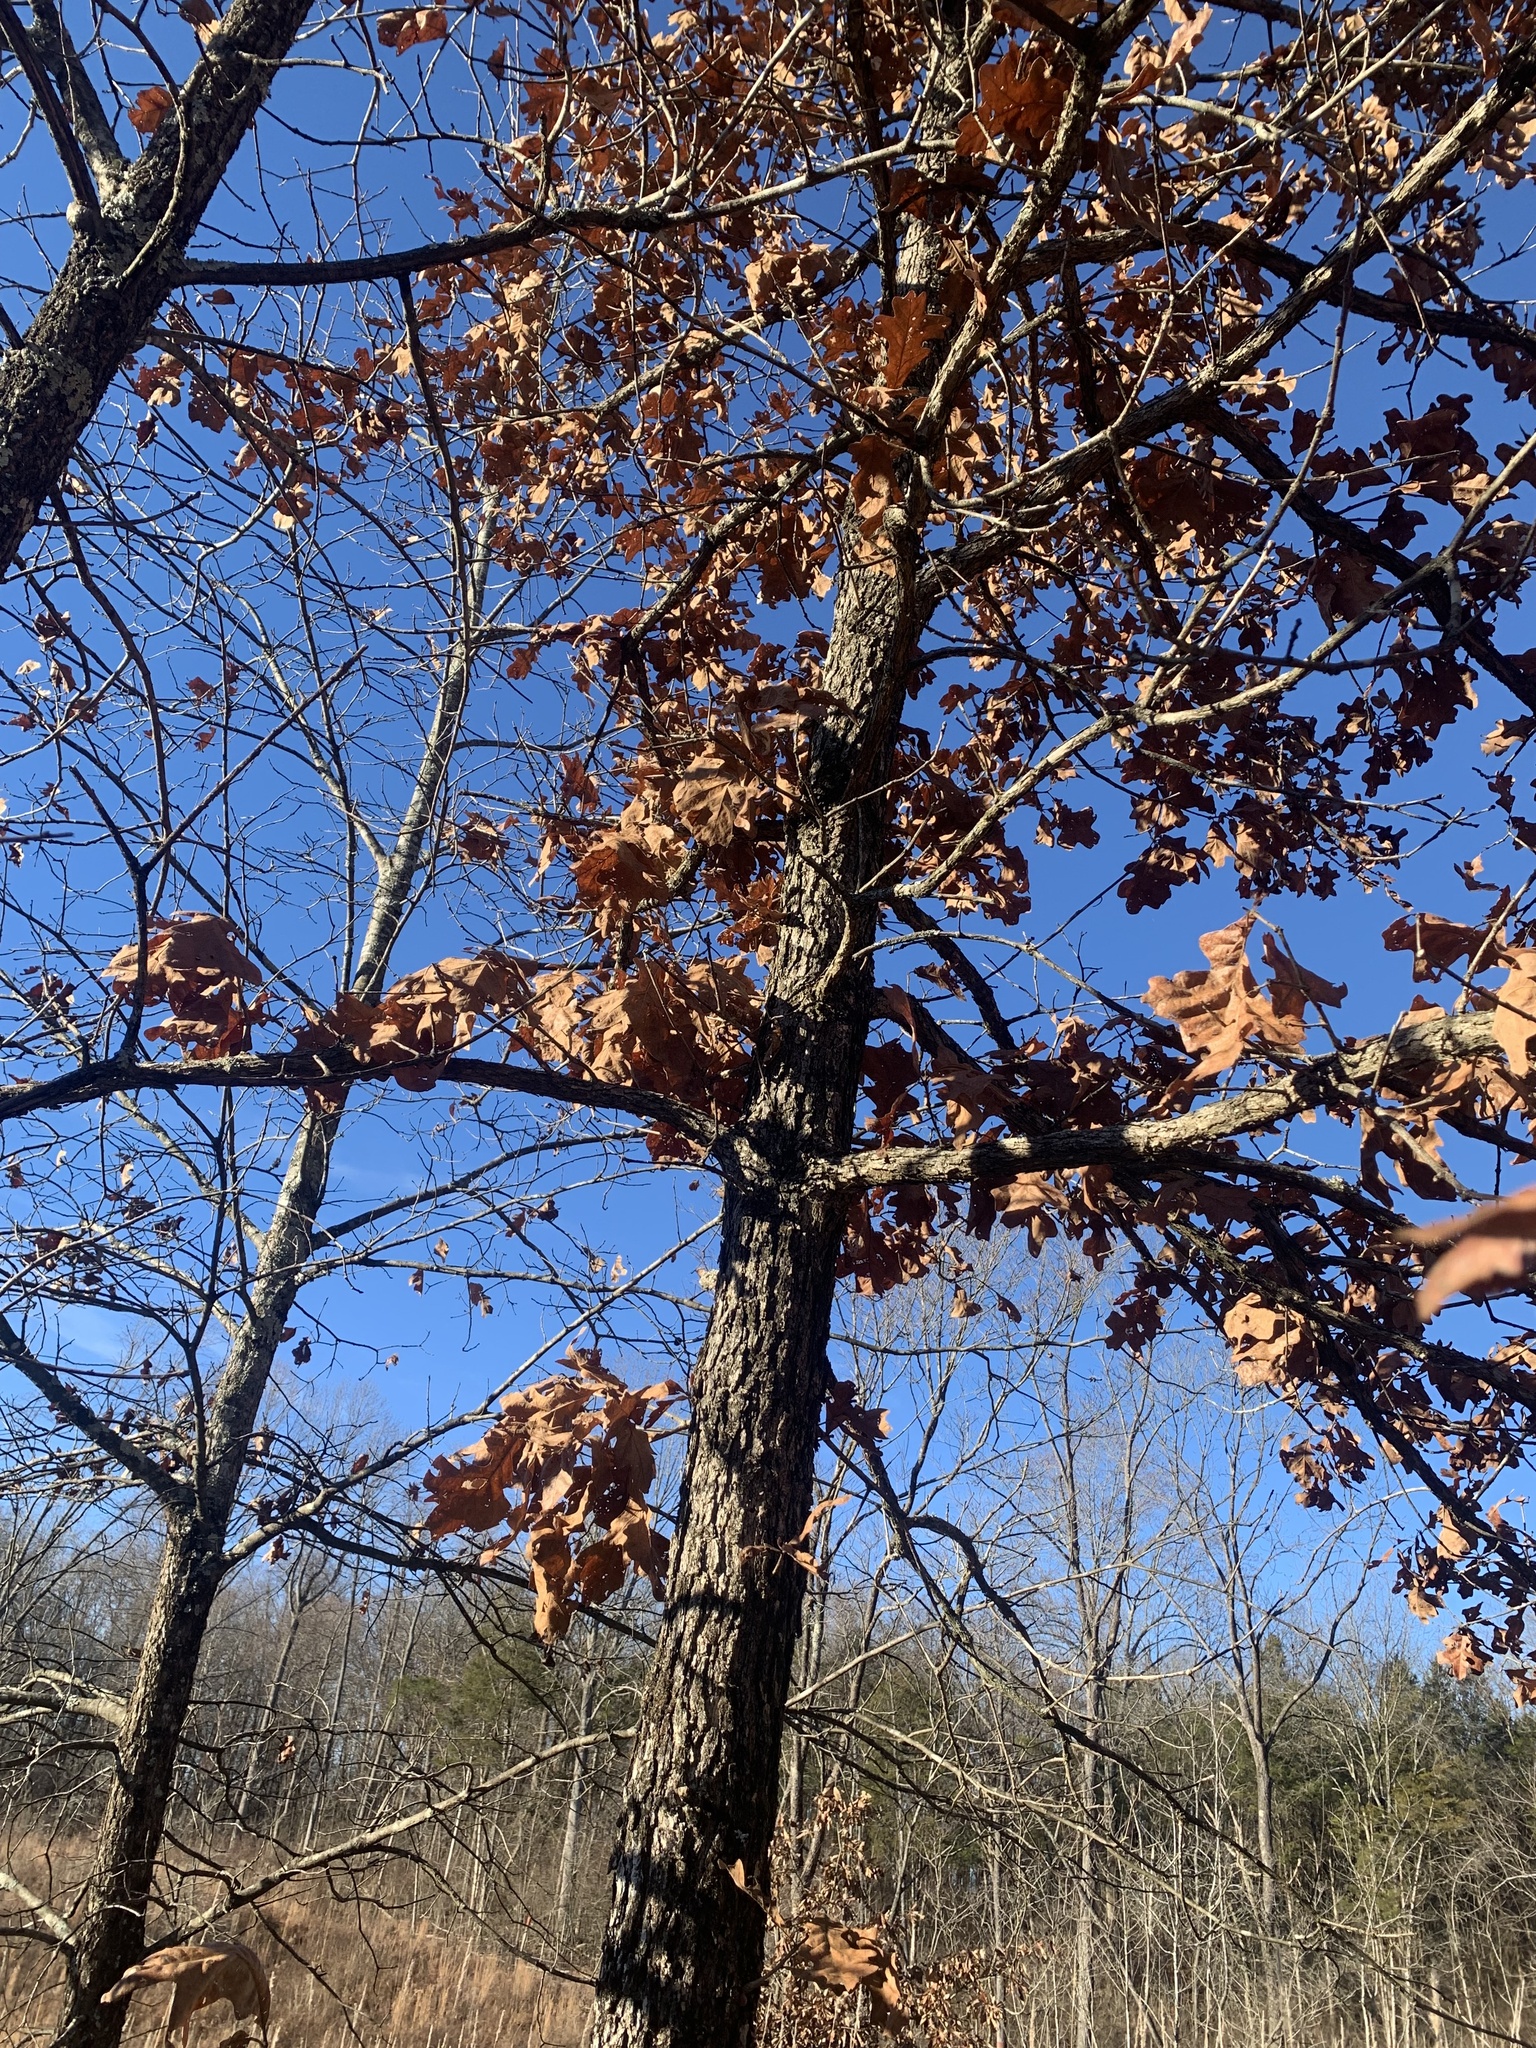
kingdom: Plantae
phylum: Tracheophyta
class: Magnoliopsida
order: Fagales
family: Fagaceae
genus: Quercus
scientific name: Quercus stellata
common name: Post oak
